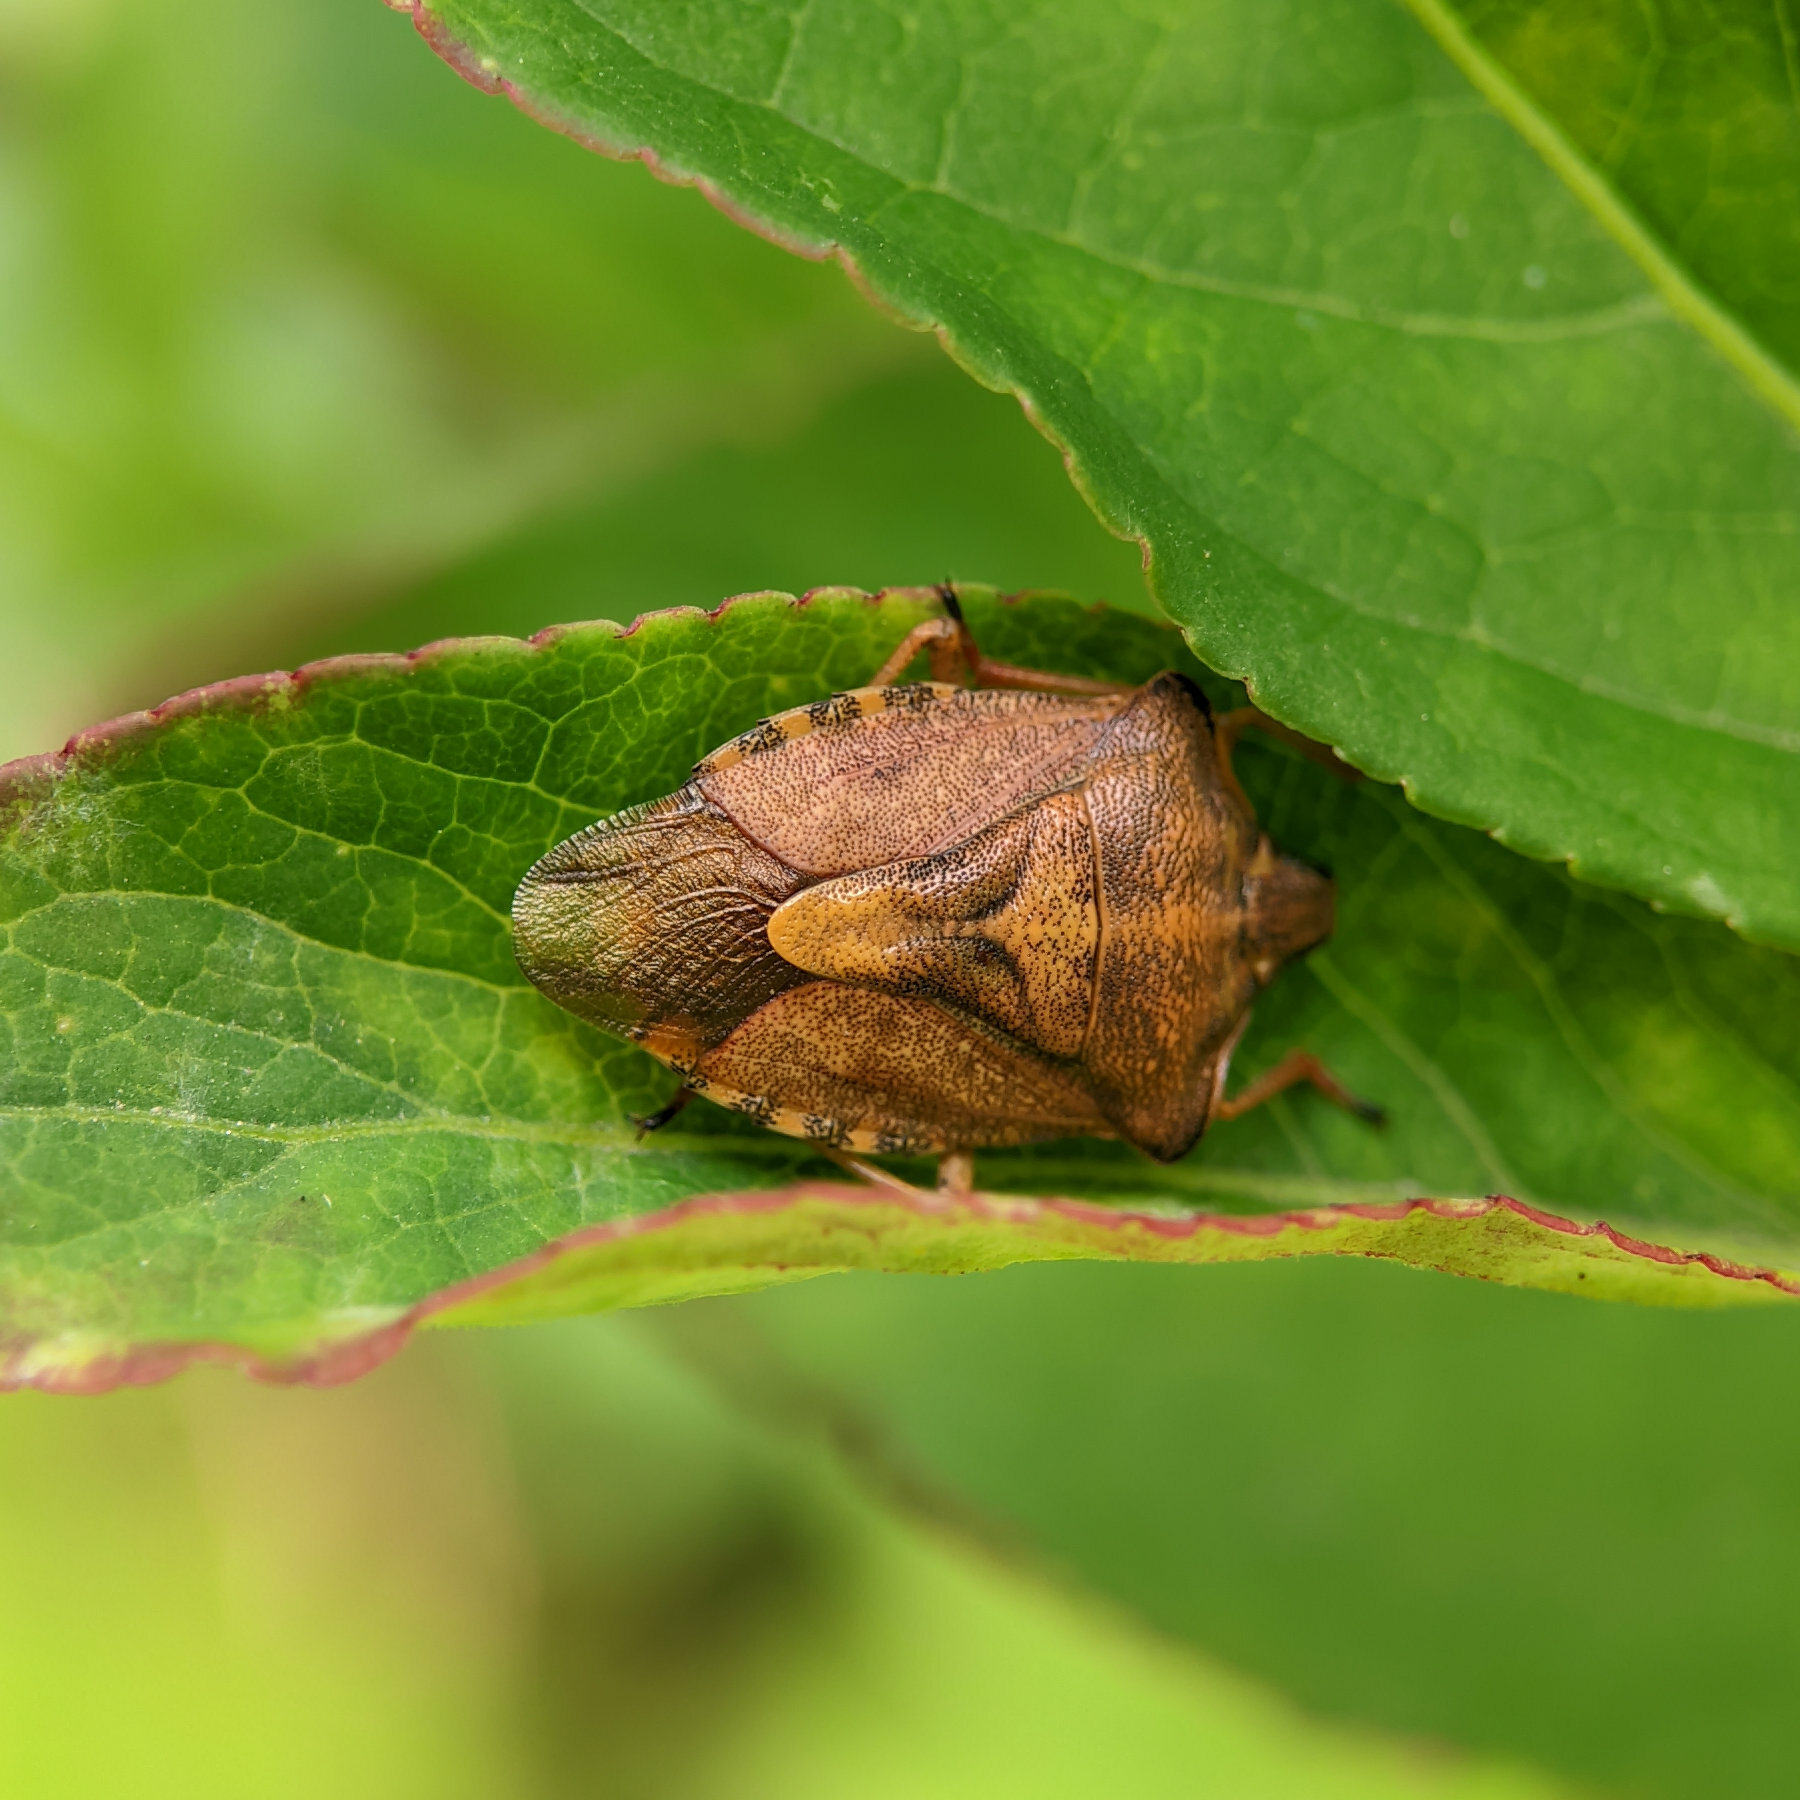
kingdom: Animalia
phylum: Arthropoda
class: Insecta
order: Hemiptera
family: Pentatomidae
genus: Carpocoris
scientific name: Carpocoris purpureipennis
